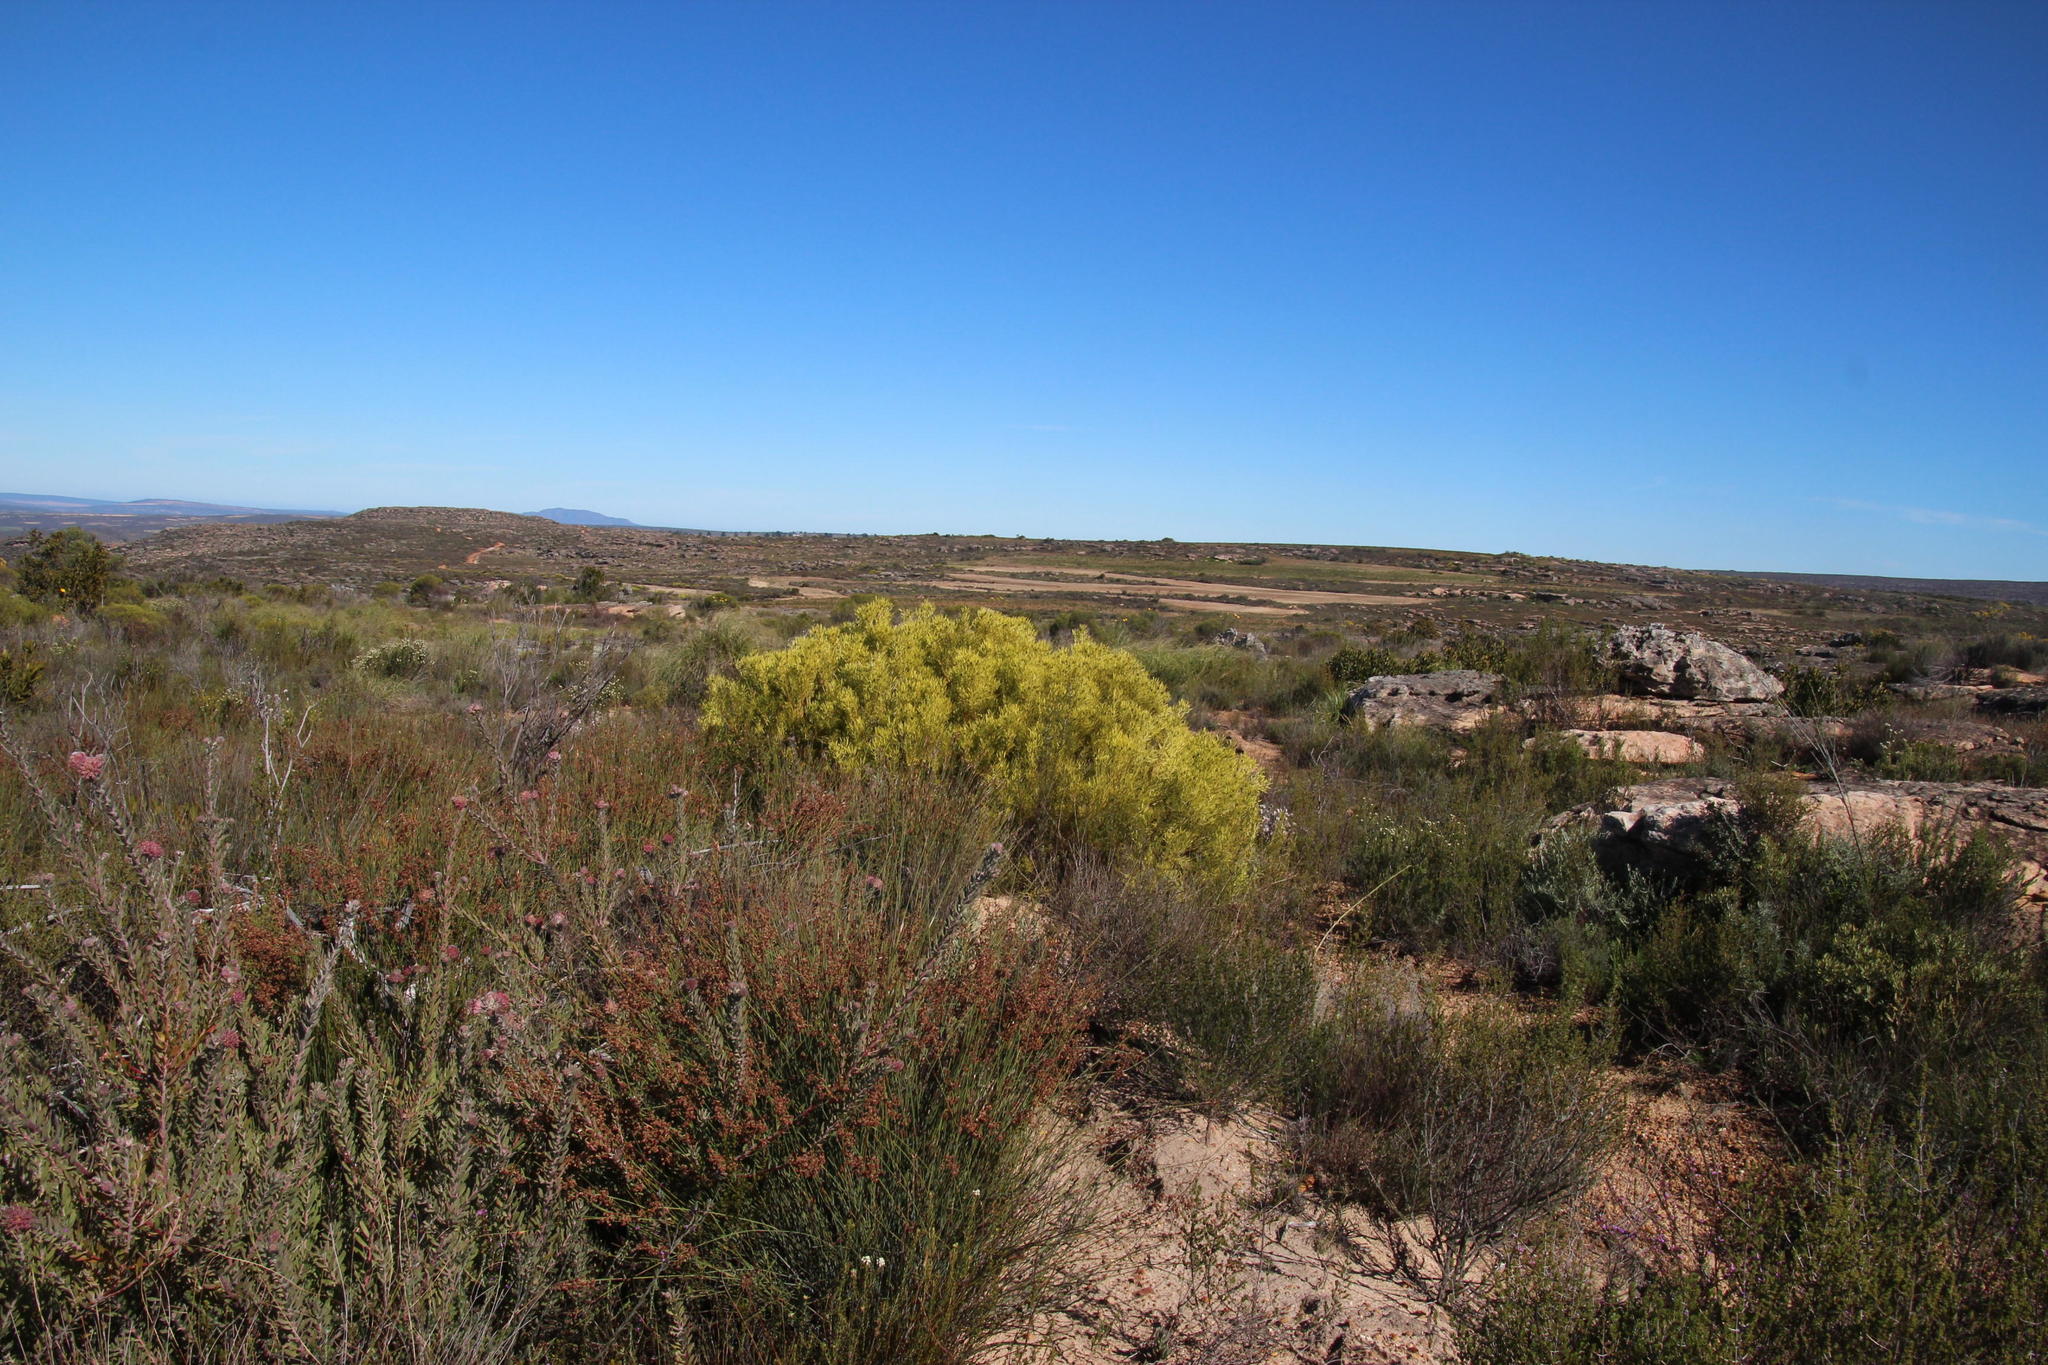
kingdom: Plantae
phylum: Tracheophyta
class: Magnoliopsida
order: Proteales
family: Proteaceae
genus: Leucadendron
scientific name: Leucadendron salignum
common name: Common sunshine conebush
